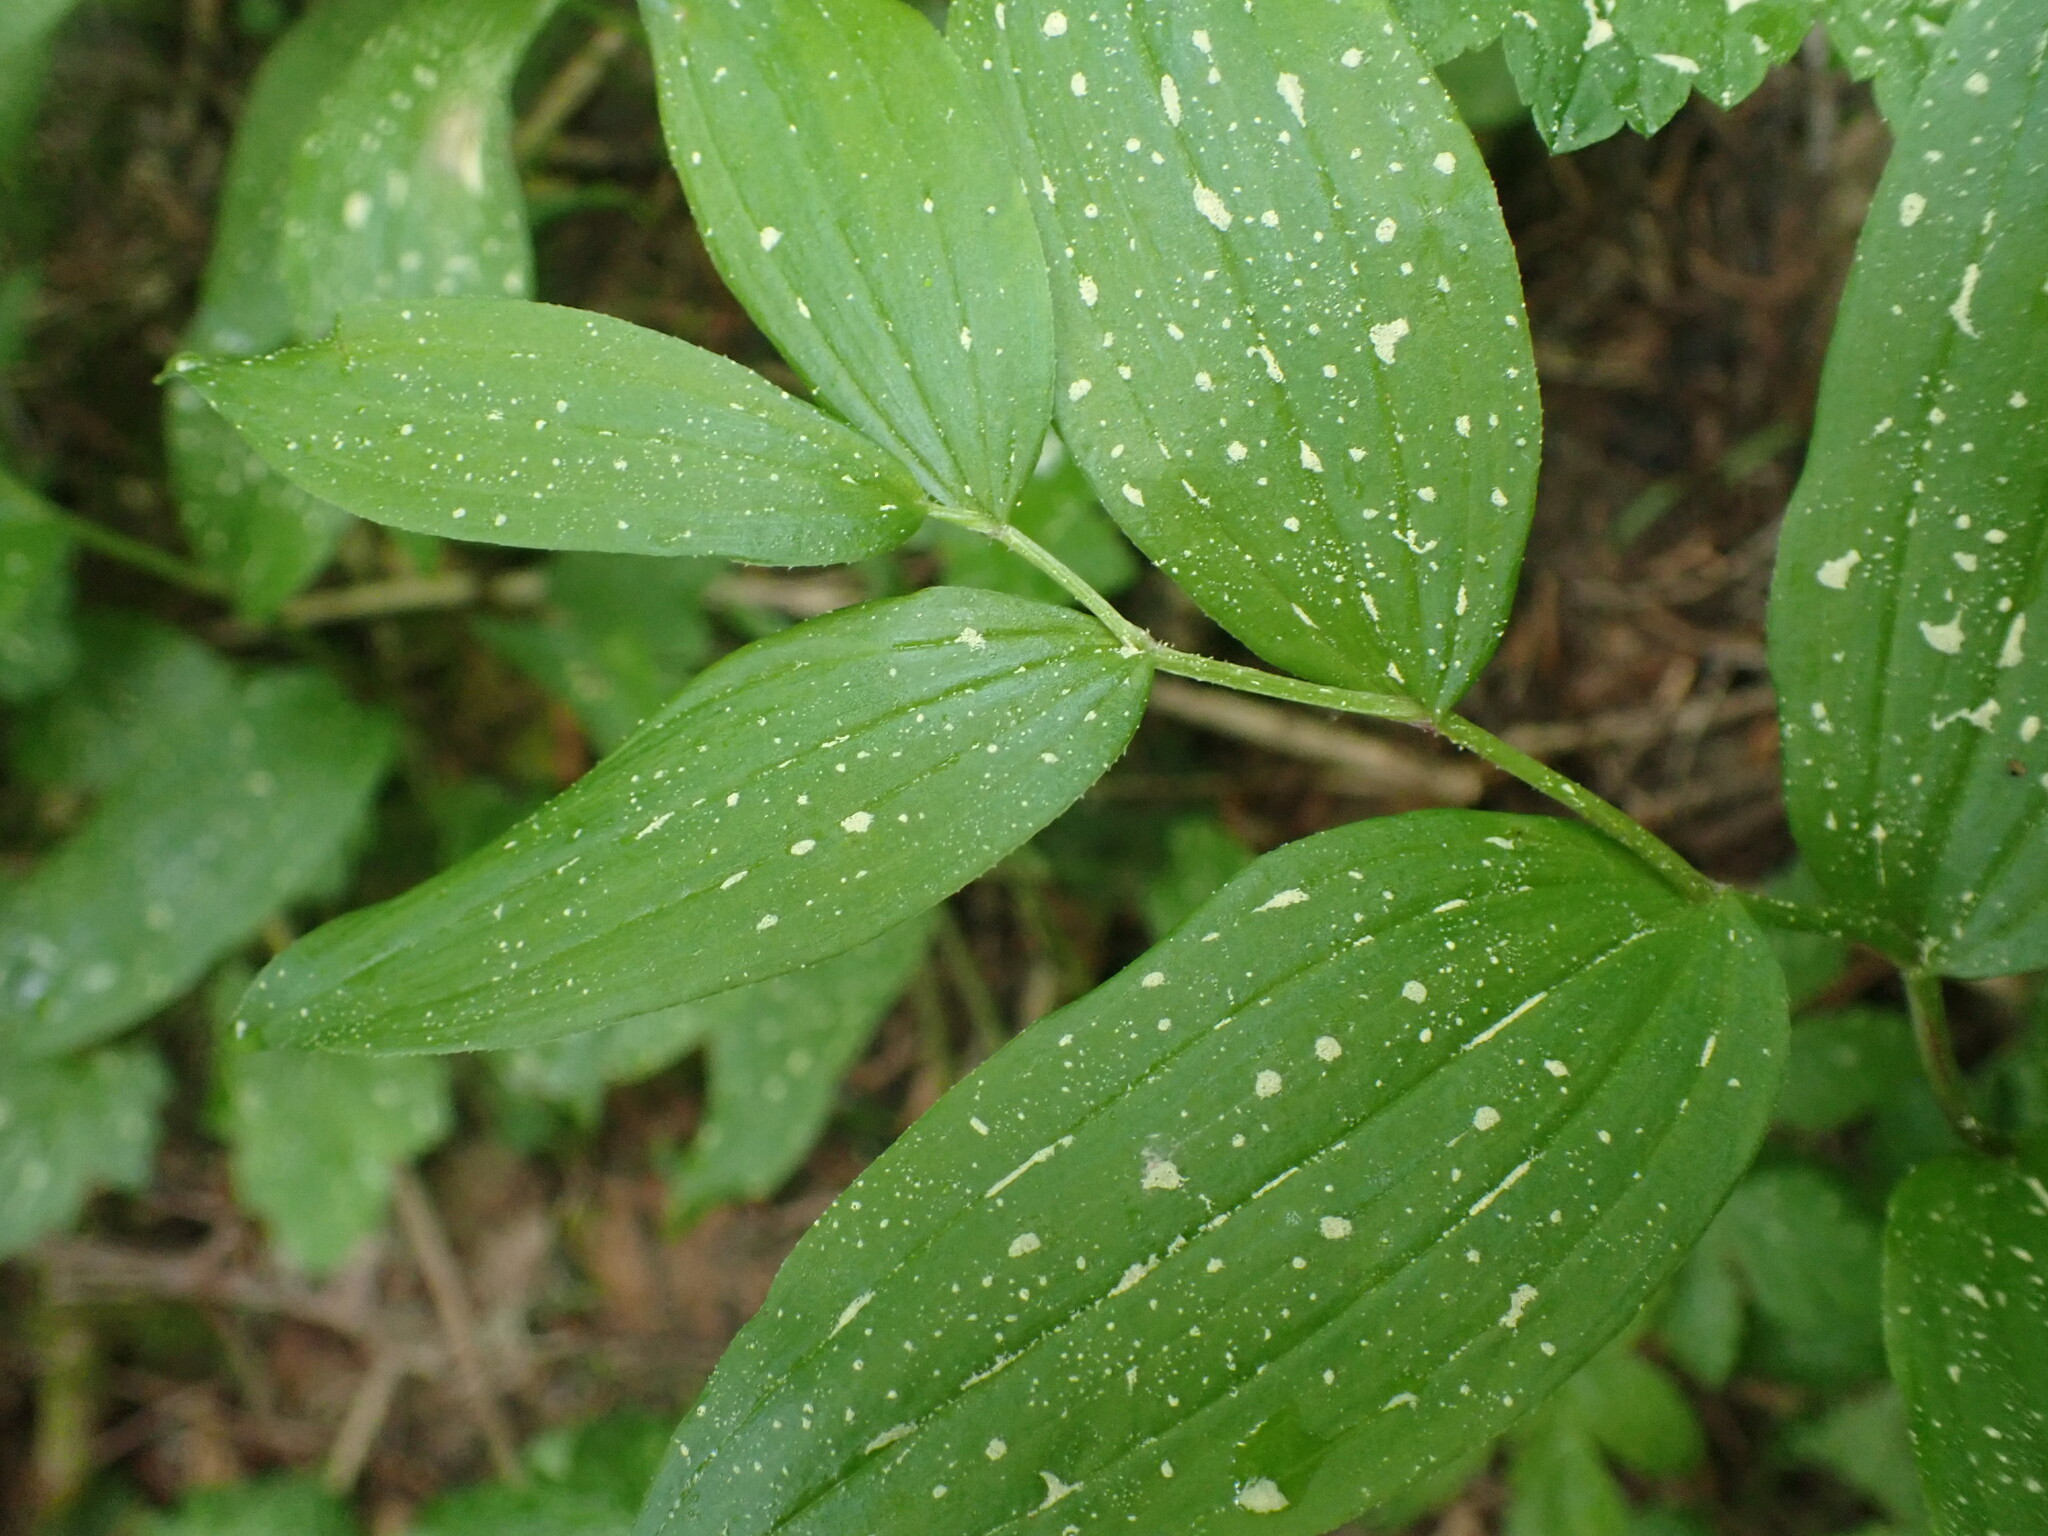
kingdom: Plantae
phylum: Tracheophyta
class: Liliopsida
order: Liliales
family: Liliaceae
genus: Streptopus
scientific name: Streptopus lanceolatus
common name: Rose mandarin
